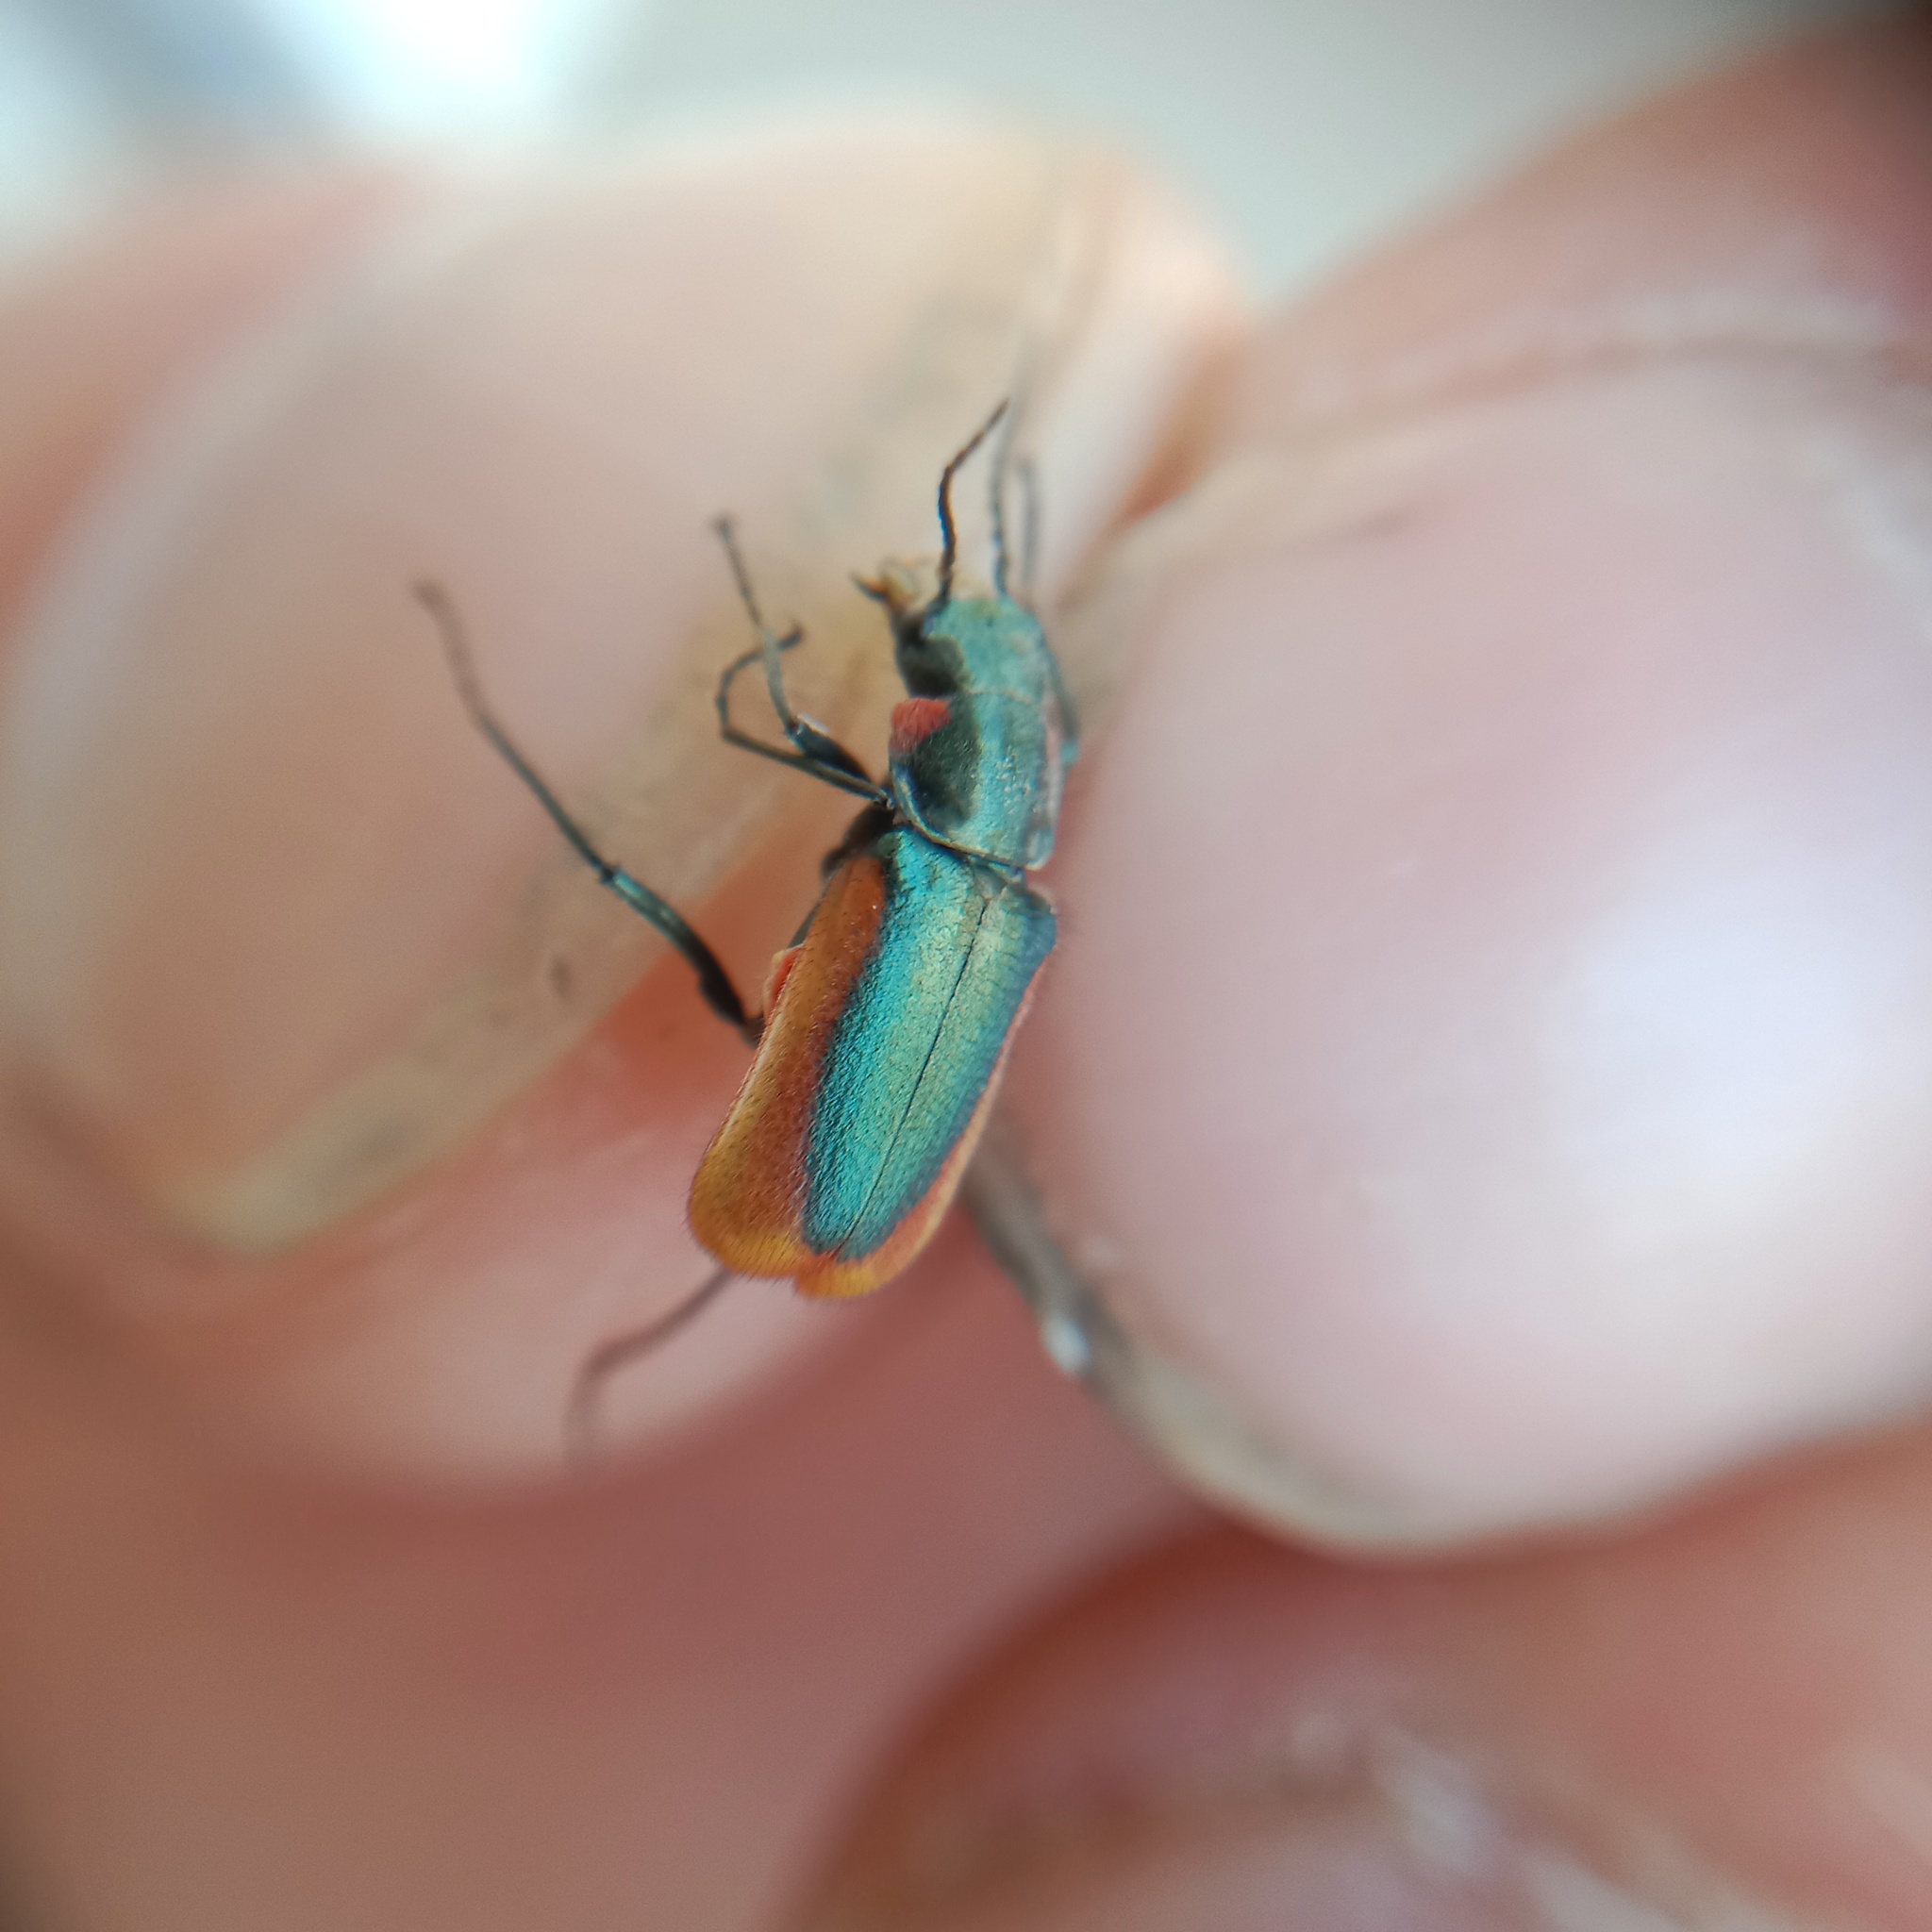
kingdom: Animalia
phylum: Arthropoda
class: Insecta
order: Coleoptera
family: Melyridae
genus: Malachius
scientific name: Malachius aeneus
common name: Scarlet malachite beetle
